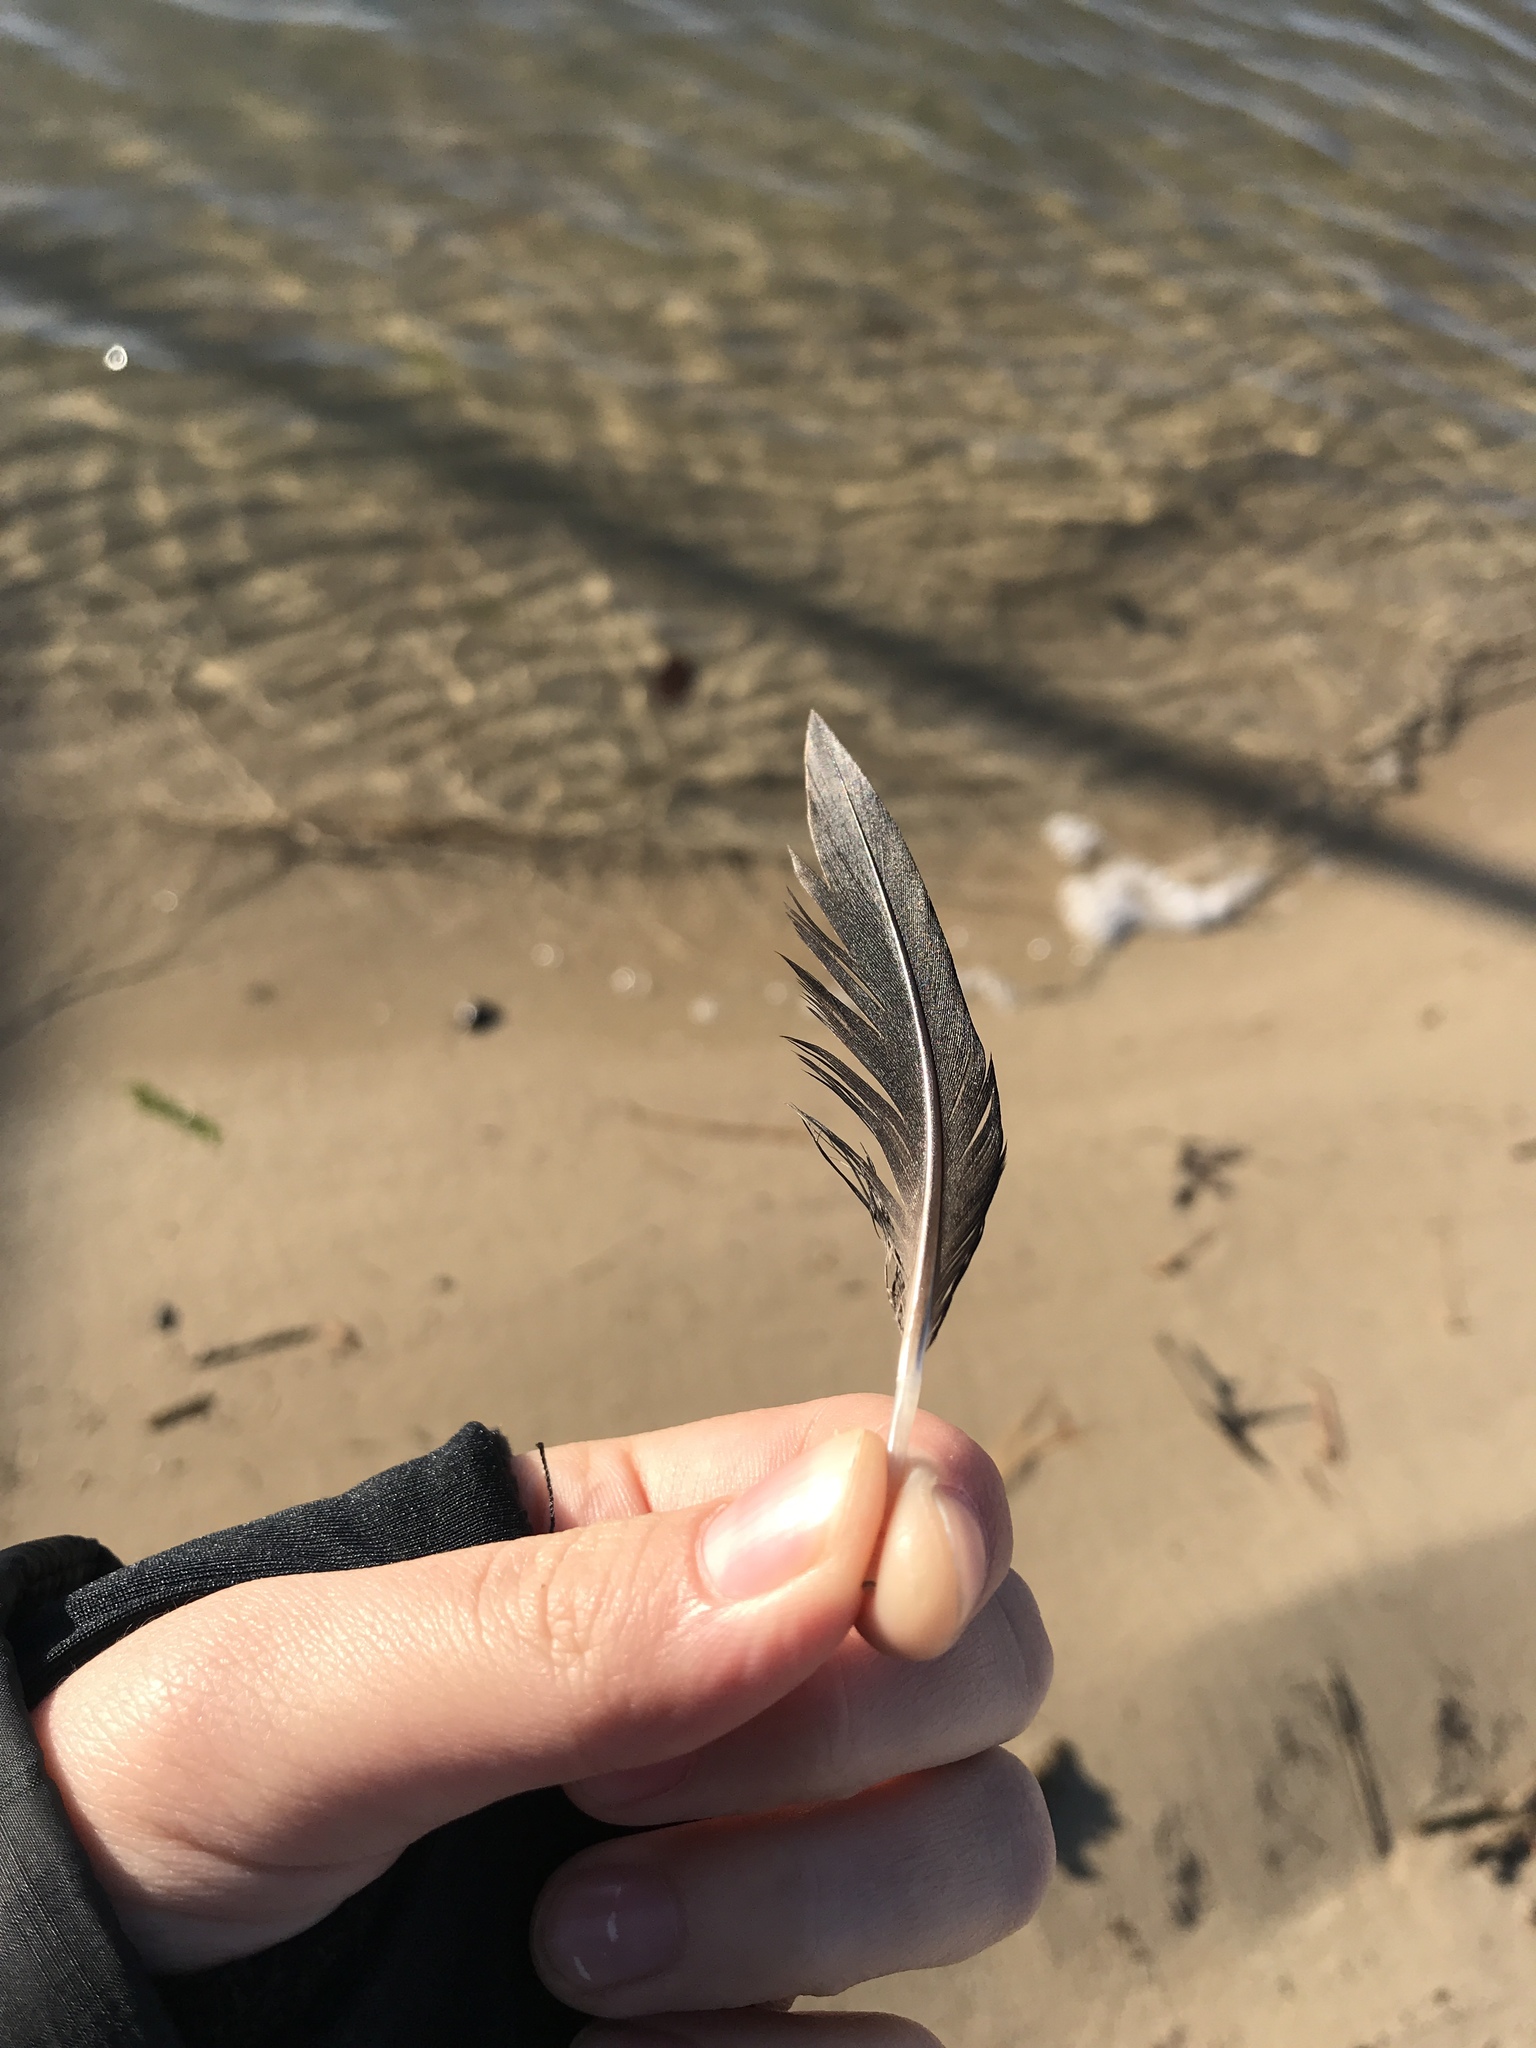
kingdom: Animalia
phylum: Chordata
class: Aves
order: Anseriformes
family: Anatidae
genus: Melanitta
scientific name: Melanitta perspicillata
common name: Surf scoter
